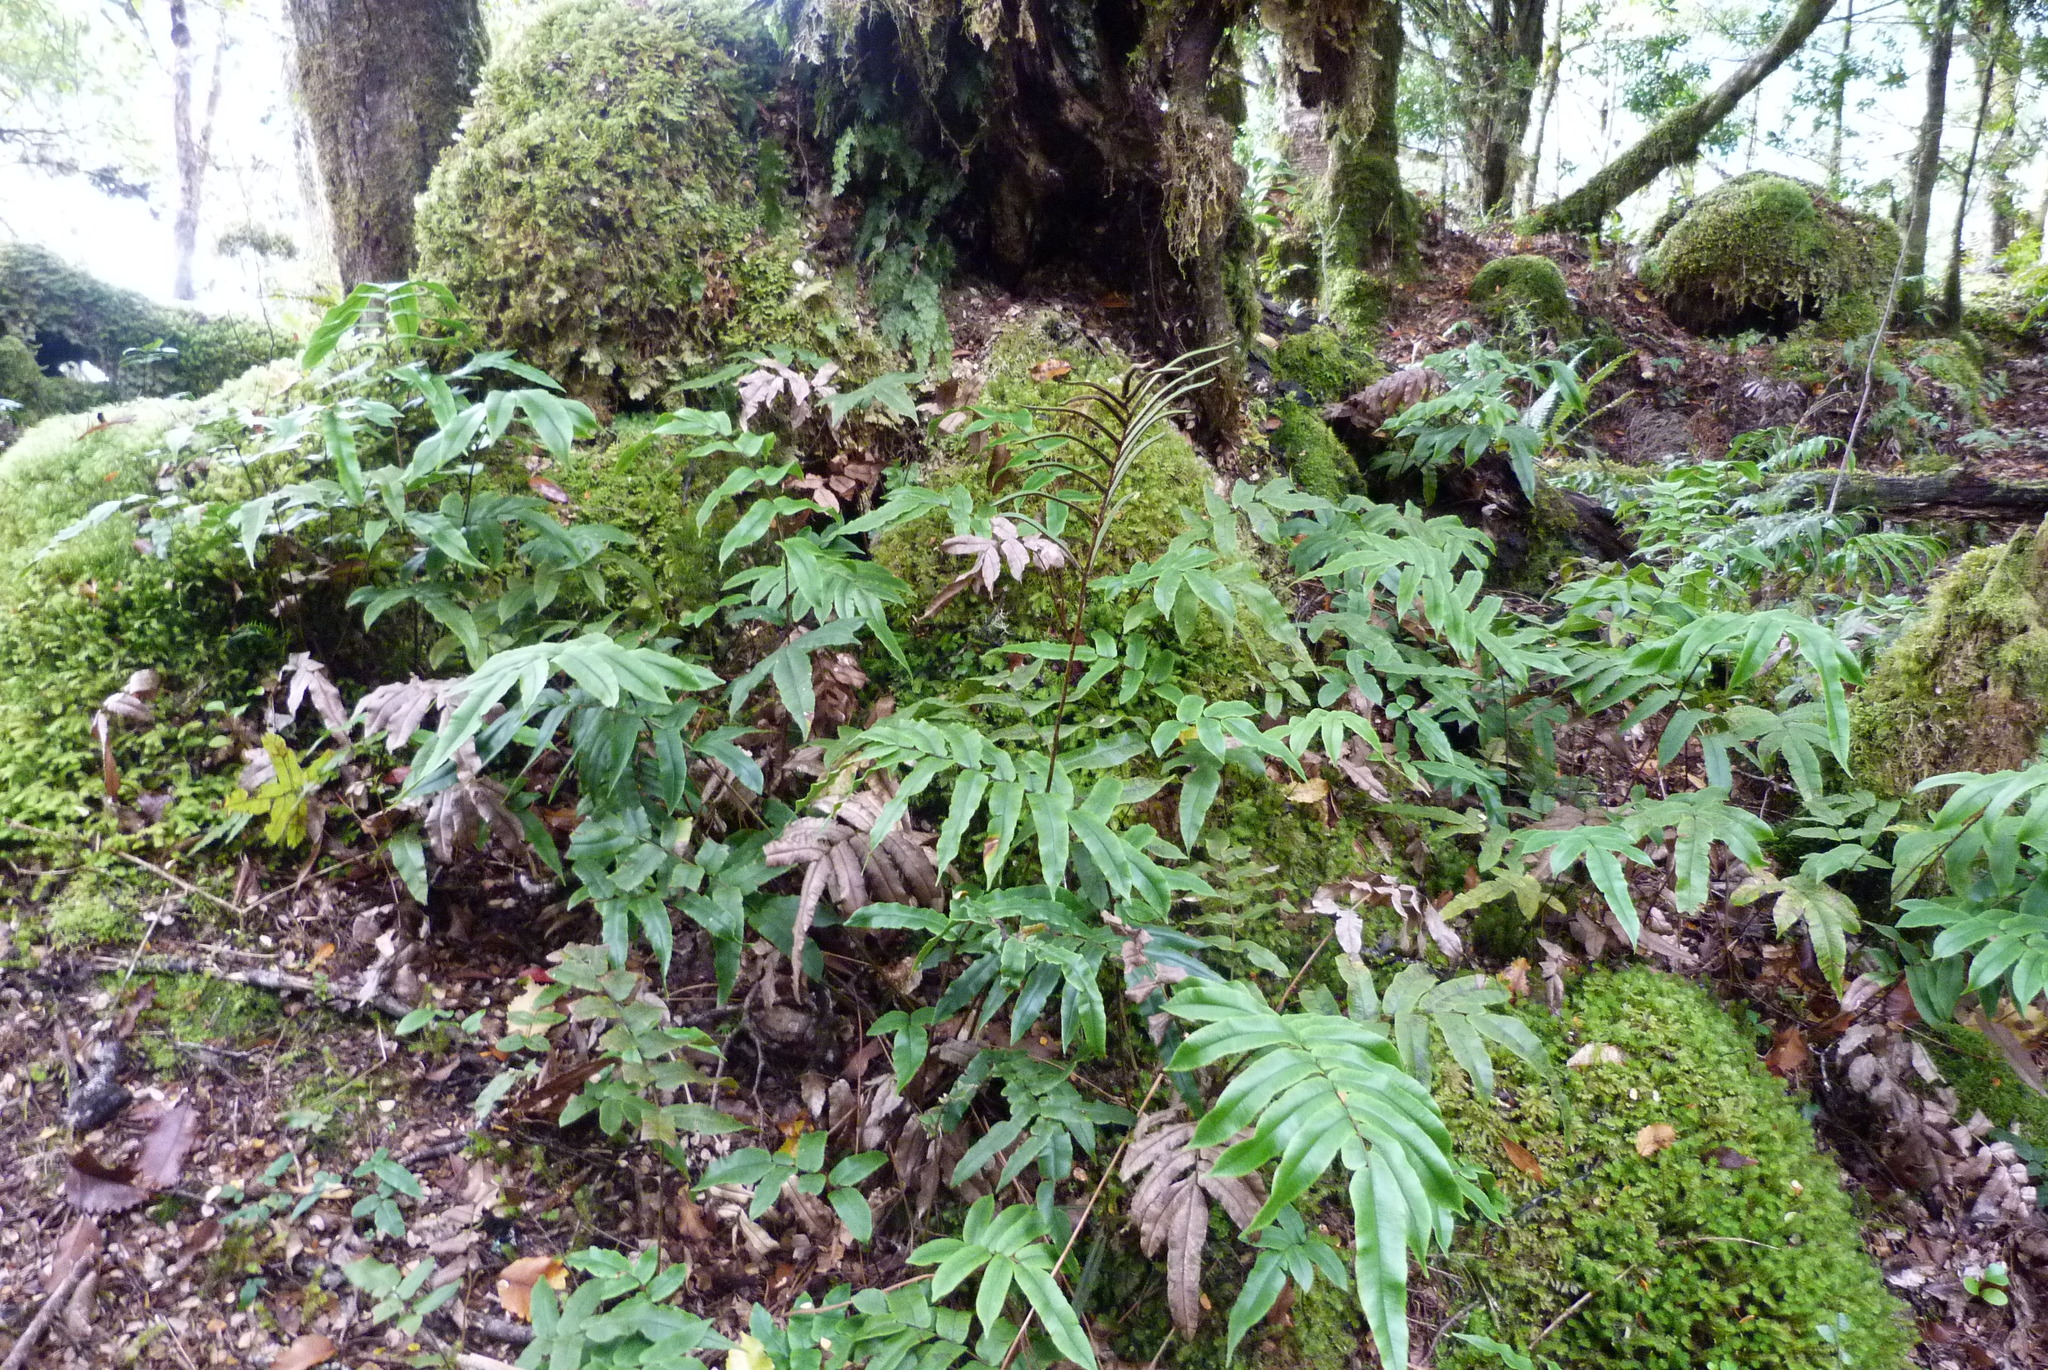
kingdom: Plantae
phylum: Tracheophyta
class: Polypodiopsida
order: Polypodiales
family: Blechnaceae
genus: Parablechnum
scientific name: Parablechnum procerum
